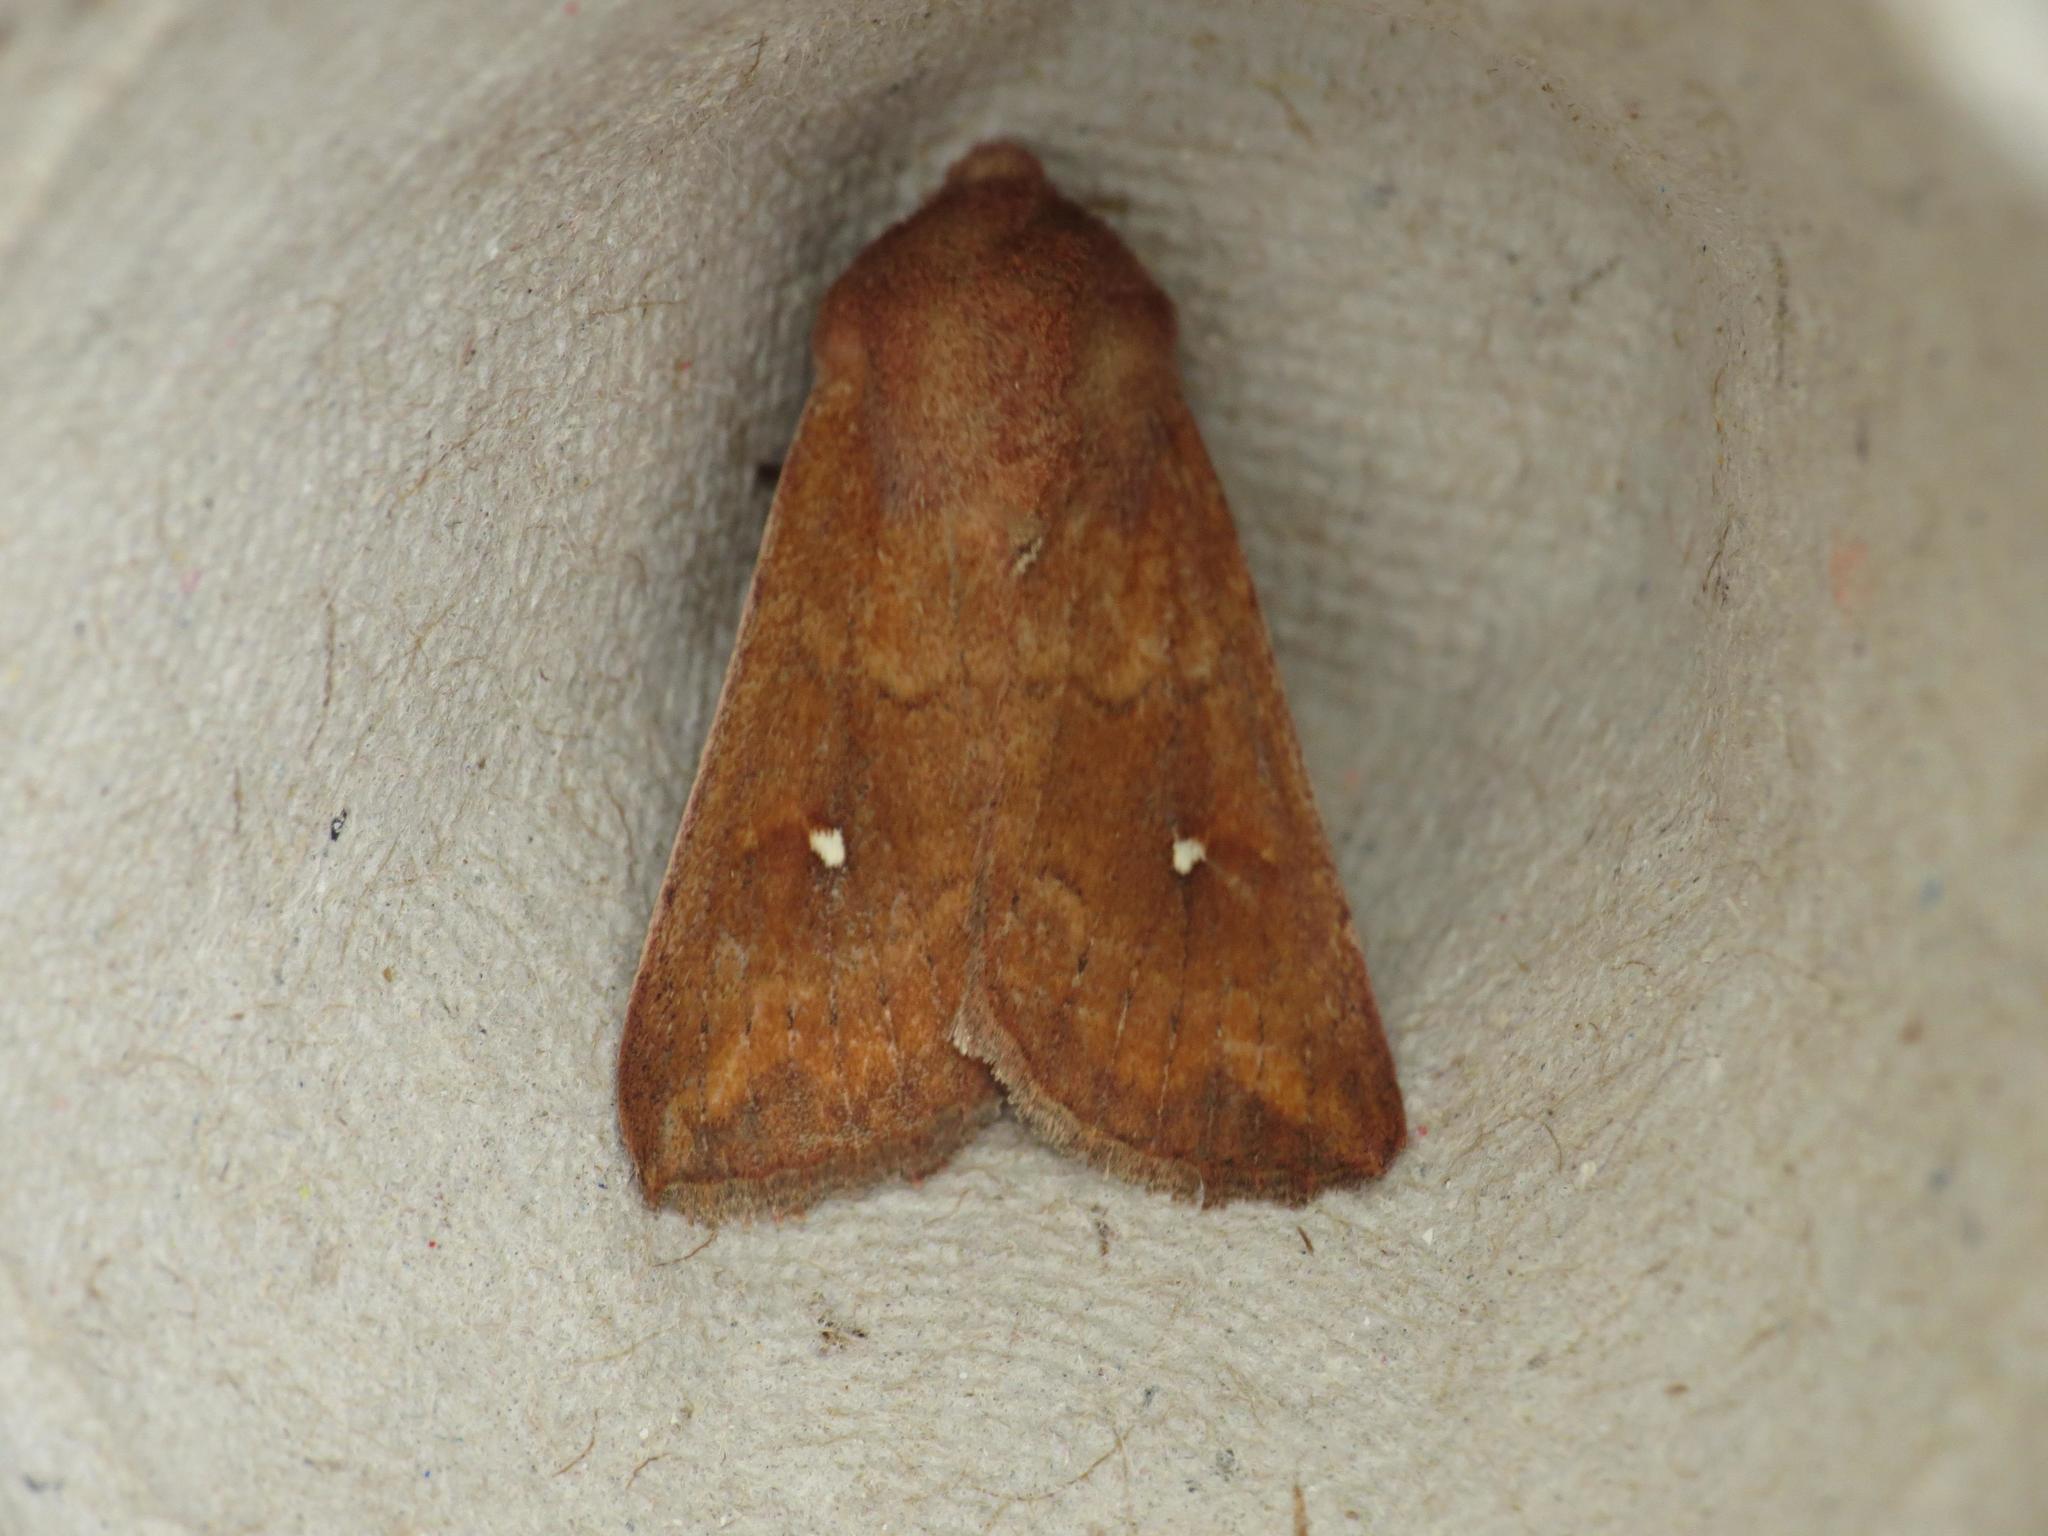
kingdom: Animalia
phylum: Arthropoda
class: Insecta
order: Lepidoptera
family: Noctuidae
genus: Mythimna
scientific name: Mythimna albipuncta
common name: White-point
